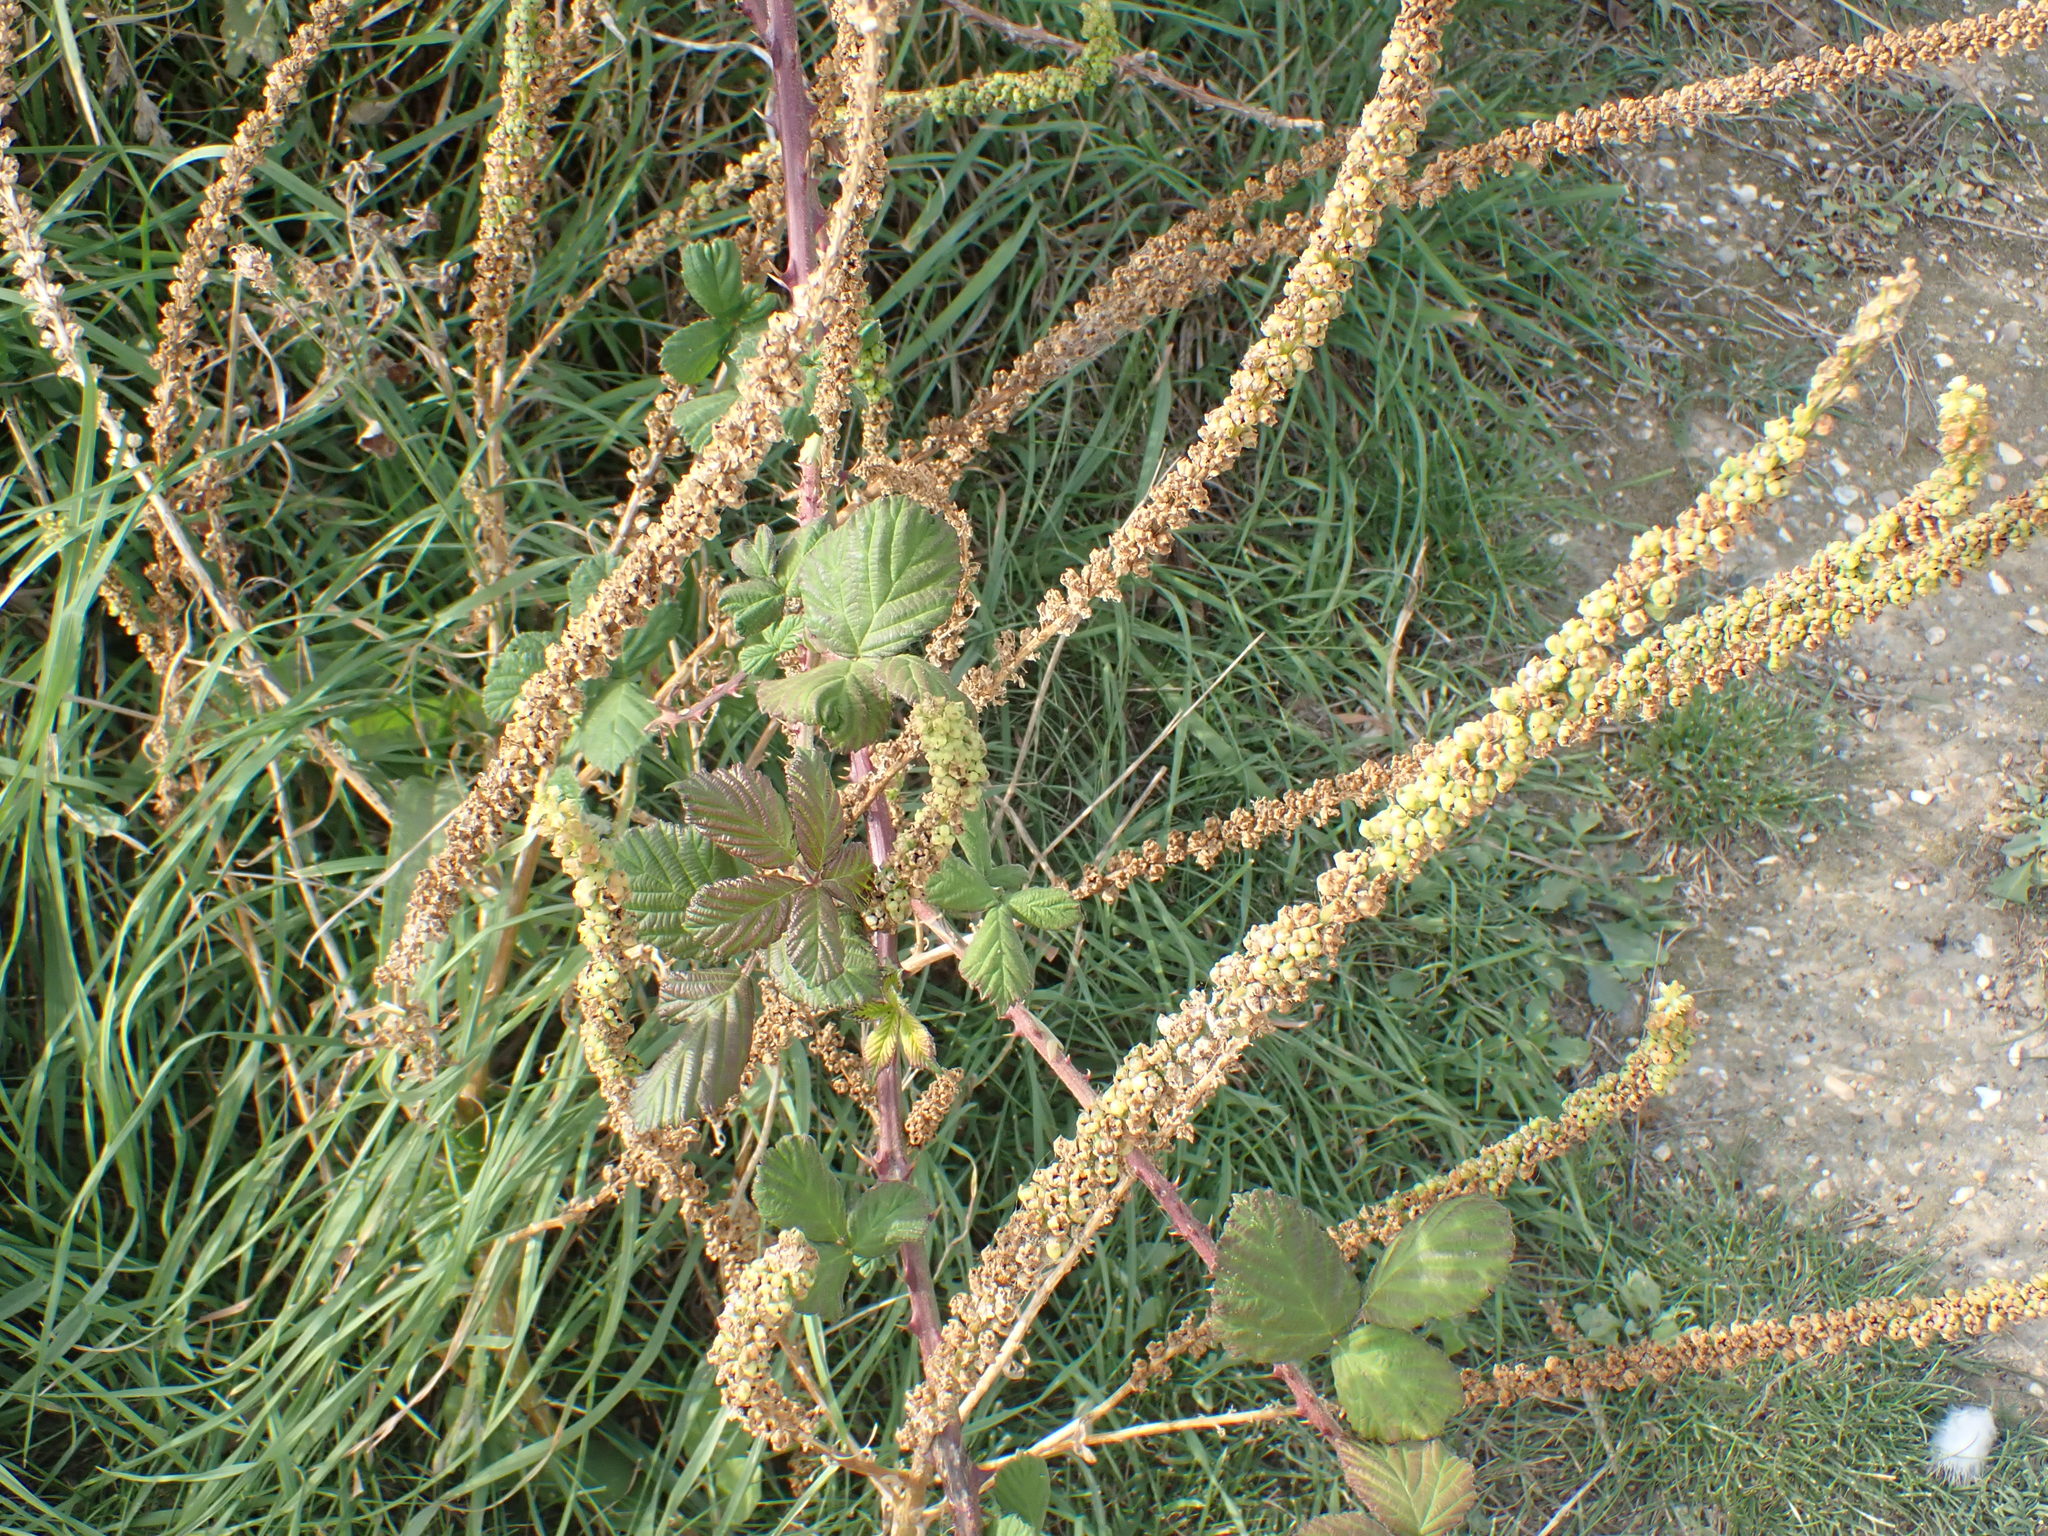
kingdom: Plantae
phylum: Tracheophyta
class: Magnoliopsida
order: Brassicales
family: Resedaceae
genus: Reseda
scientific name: Reseda luteola
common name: Weld
